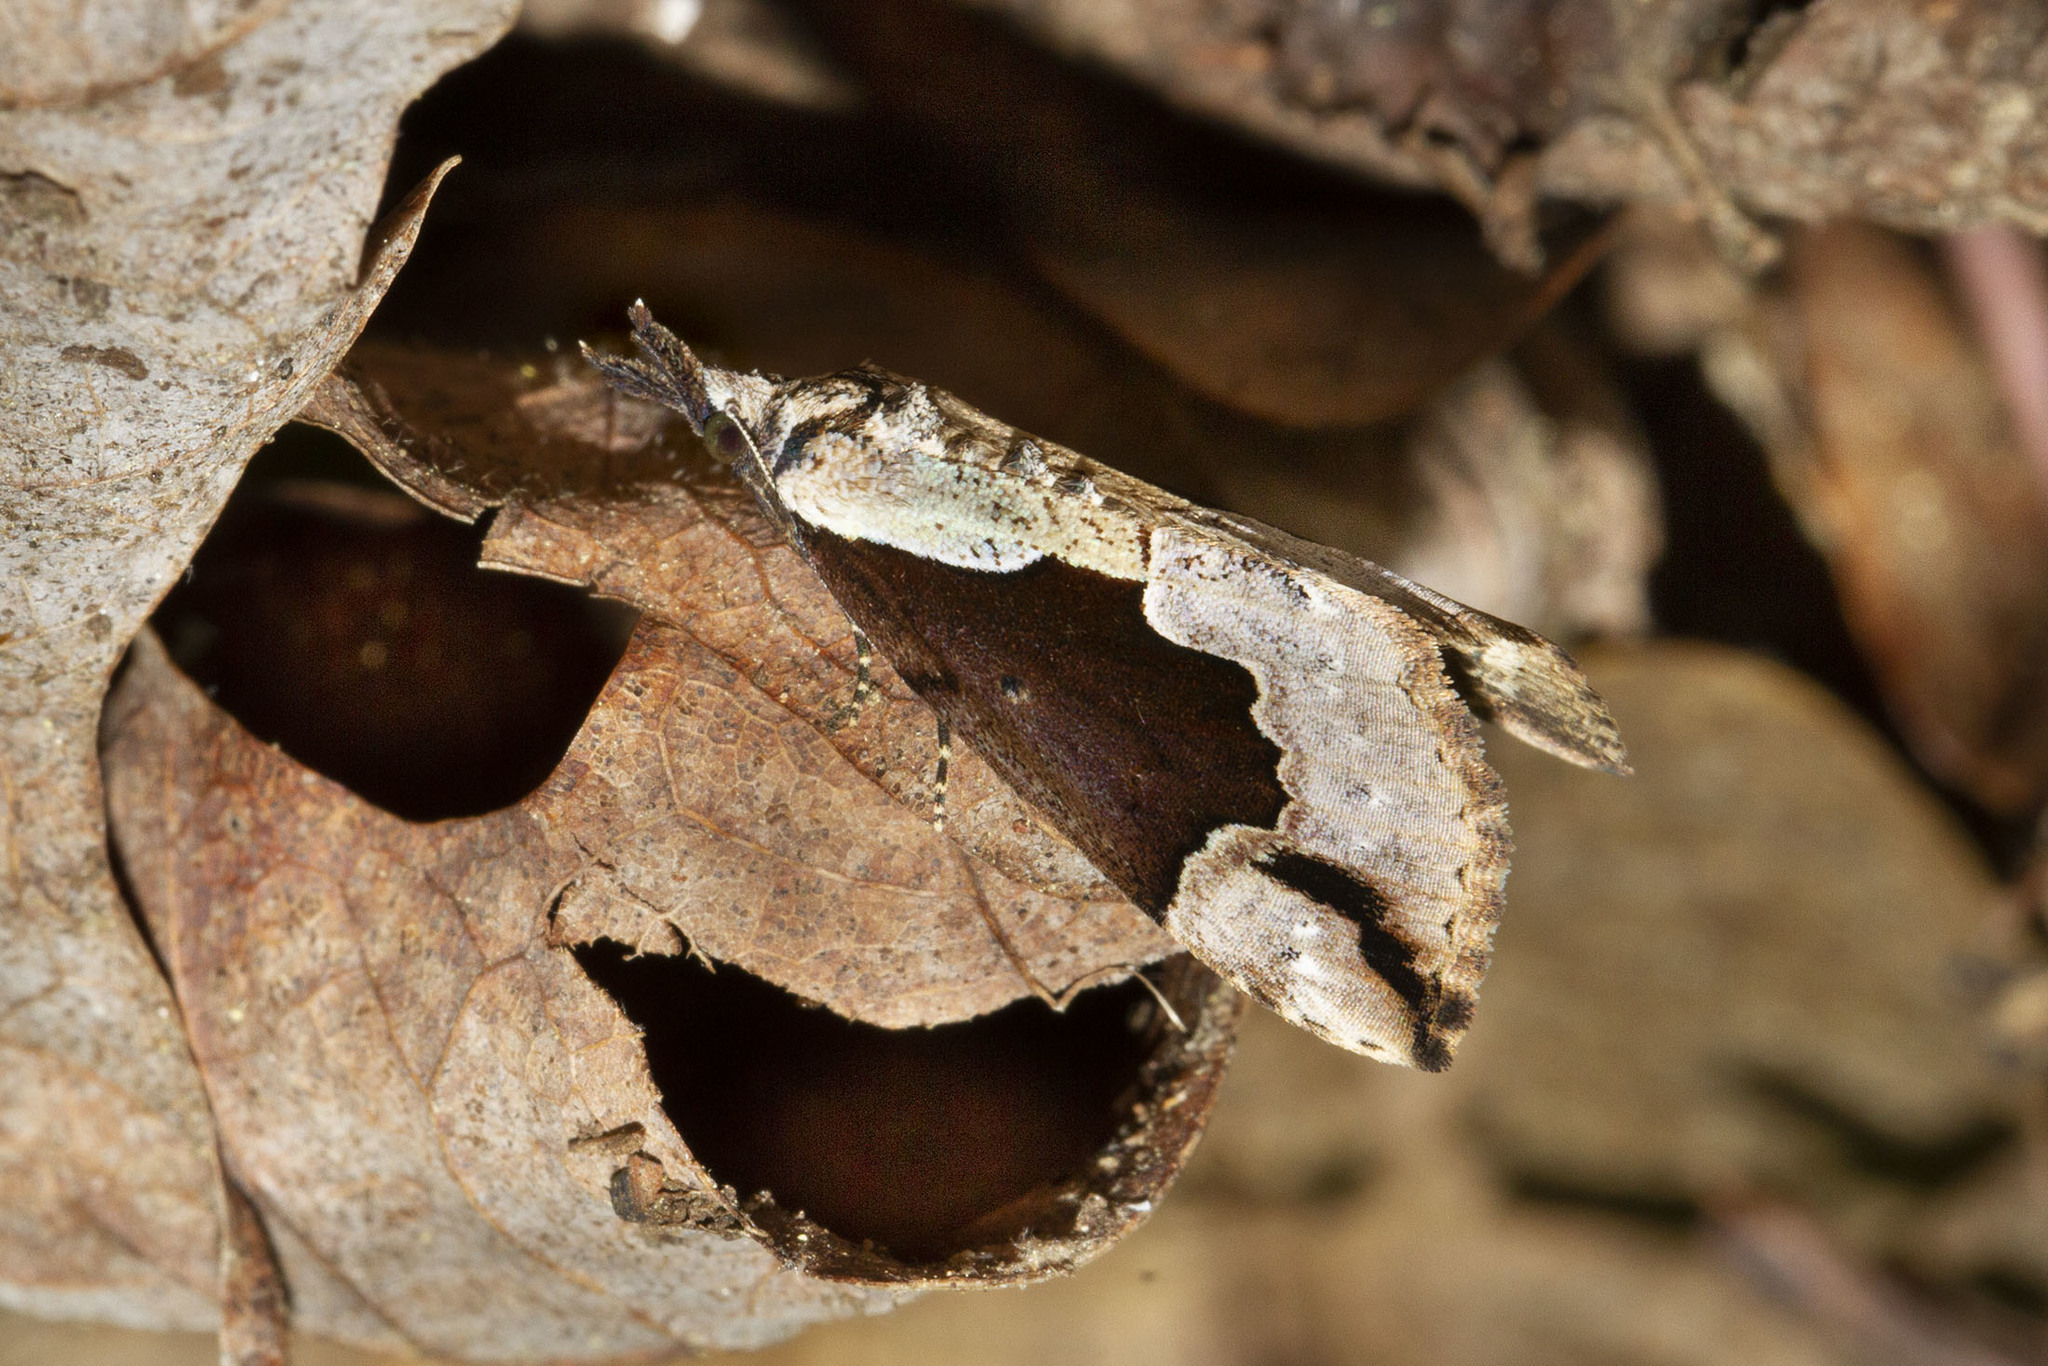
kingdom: Animalia
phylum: Arthropoda
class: Insecta
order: Lepidoptera
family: Erebidae
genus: Hypena
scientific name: Hypena baltimoralis
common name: Baltimore snout
